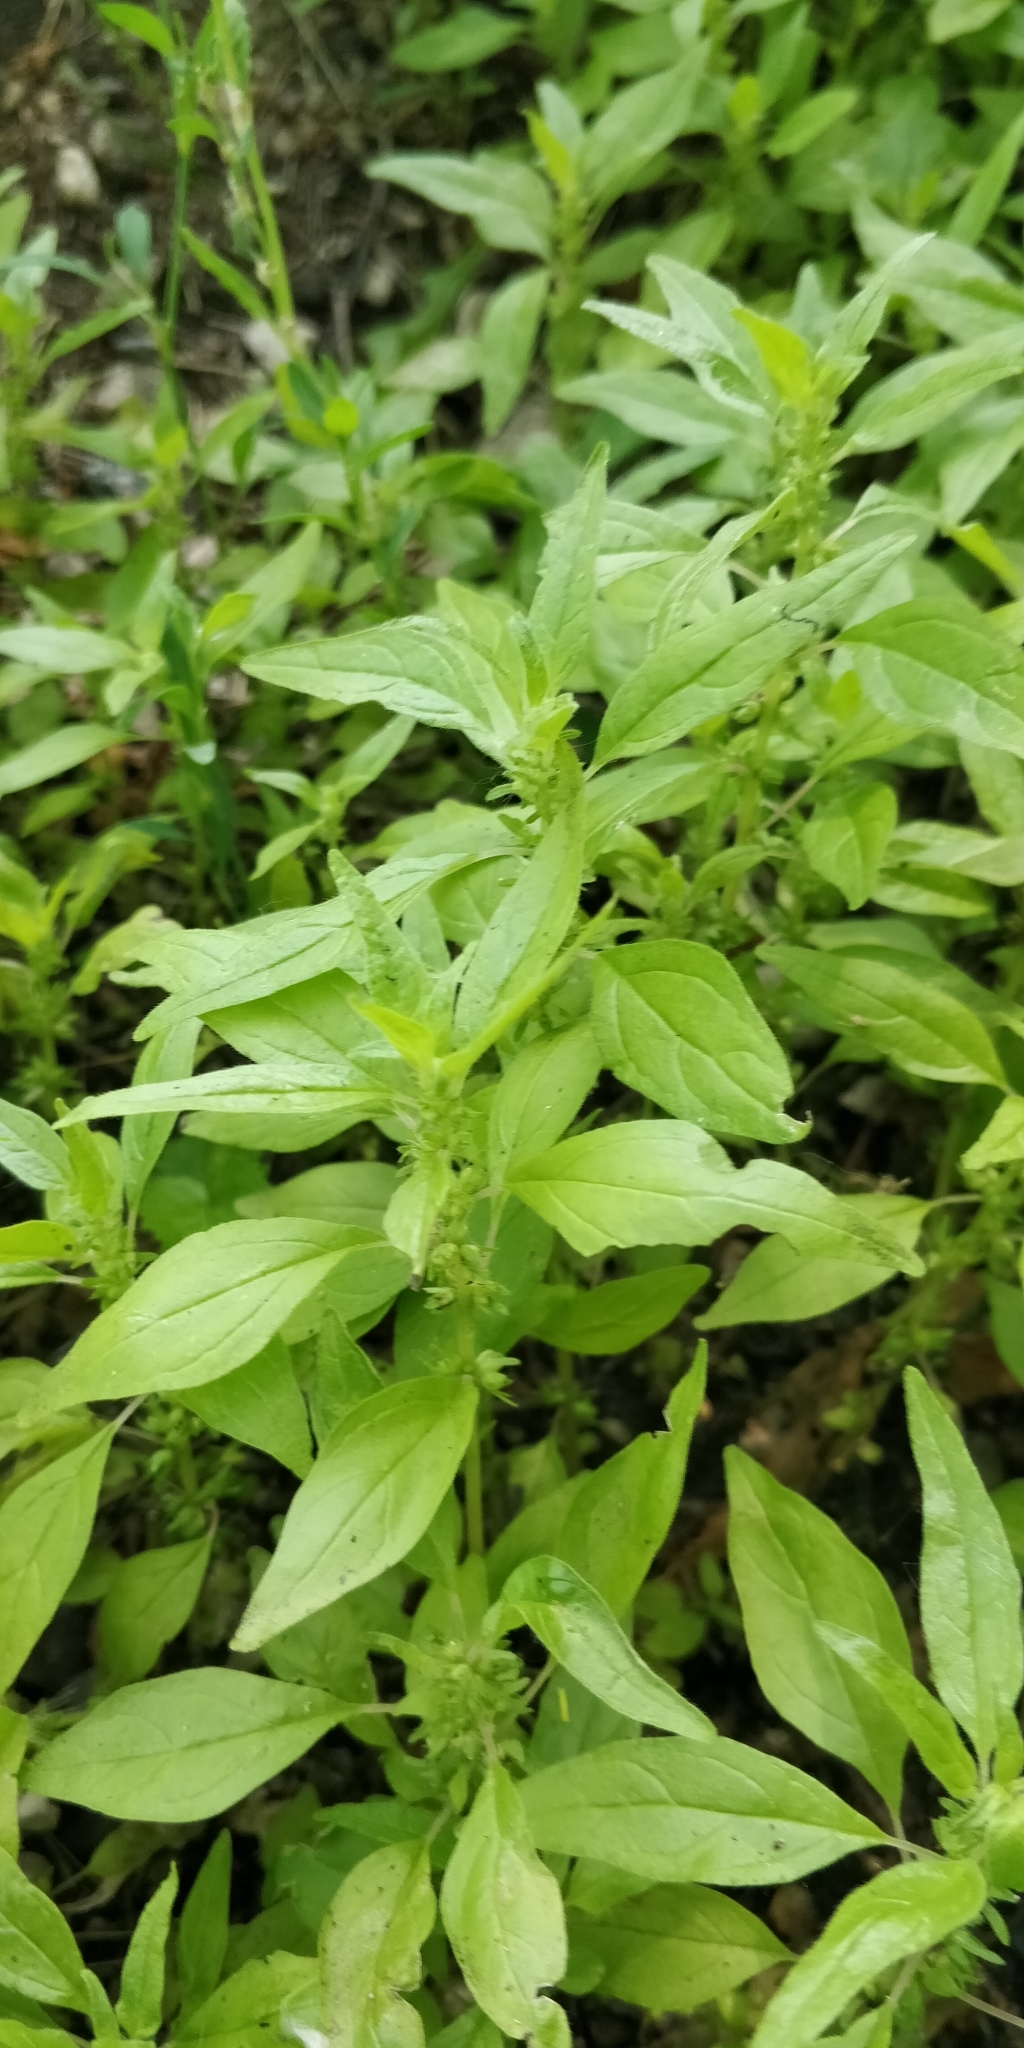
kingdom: Plantae
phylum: Tracheophyta
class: Magnoliopsida
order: Rosales
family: Urticaceae
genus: Parietaria
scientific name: Parietaria pensylvanica
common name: Pennsylvania pellitory
